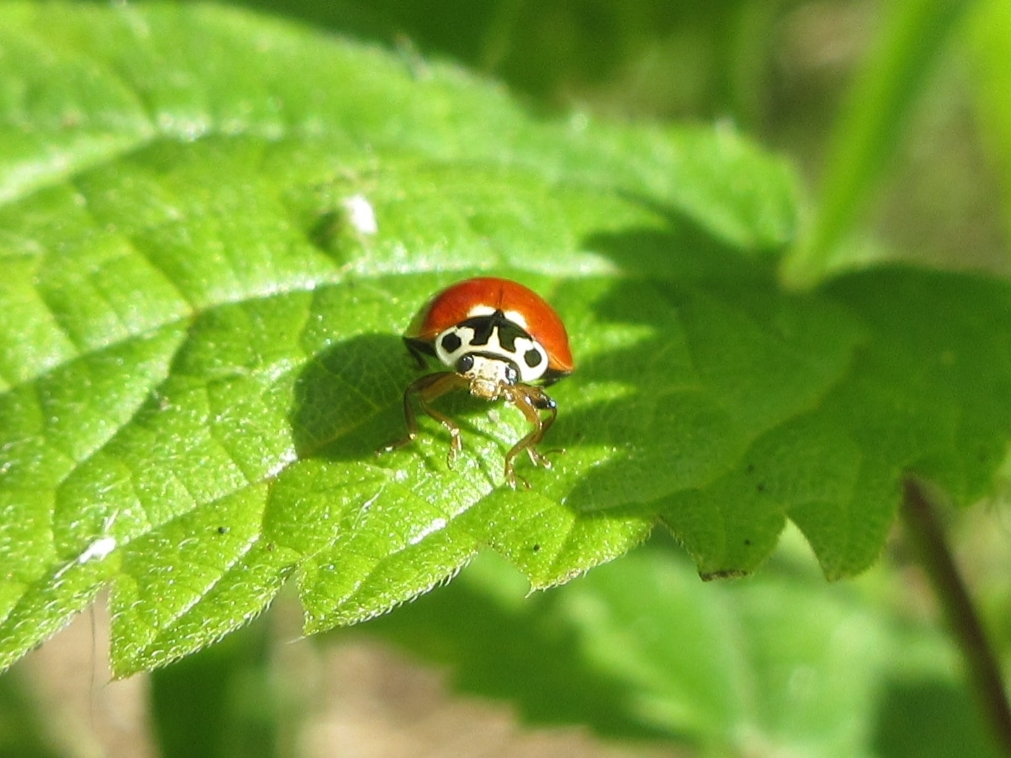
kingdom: Animalia
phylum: Arthropoda
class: Insecta
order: Coleoptera
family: Coccinellidae
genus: Cycloneda
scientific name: Cycloneda polita
